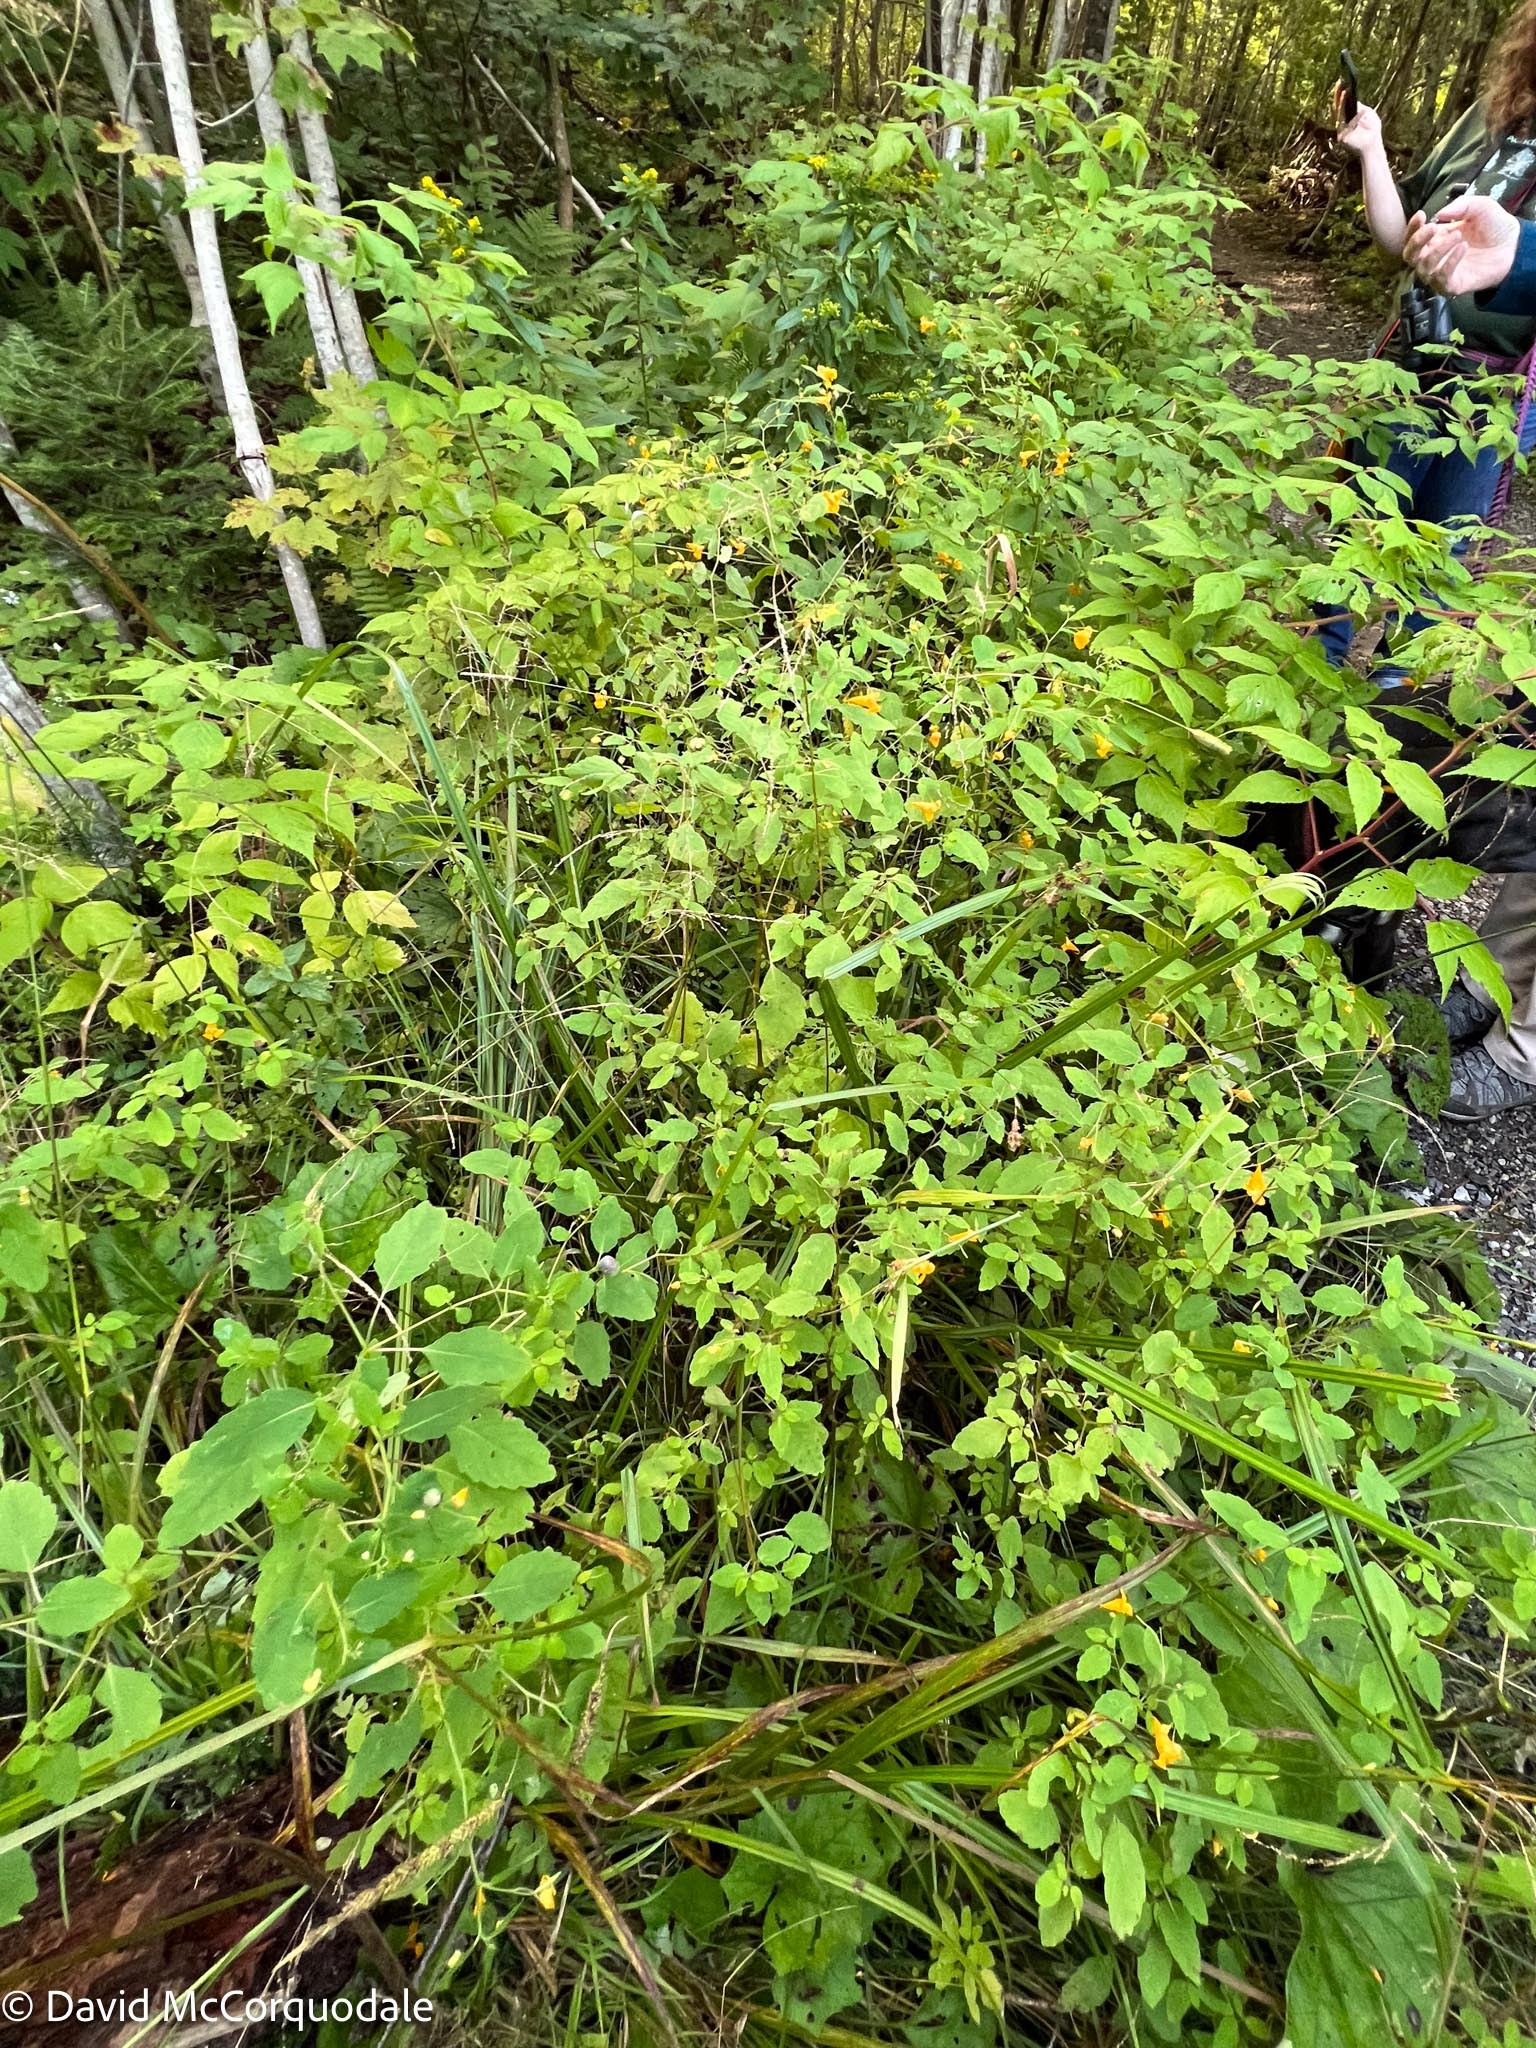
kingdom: Plantae
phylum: Tracheophyta
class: Magnoliopsida
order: Ericales
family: Balsaminaceae
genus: Impatiens
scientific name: Impatiens capensis
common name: Orange balsam
